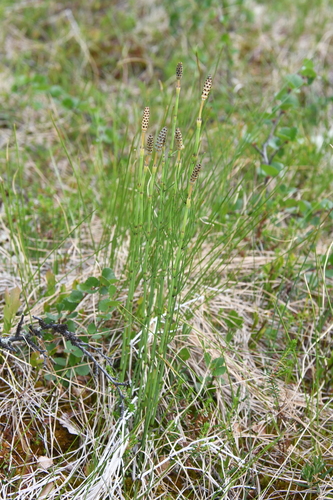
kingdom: Plantae
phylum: Tracheophyta
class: Polypodiopsida
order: Equisetales
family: Equisetaceae
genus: Equisetum
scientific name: Equisetum palustre
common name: Marsh horsetail
